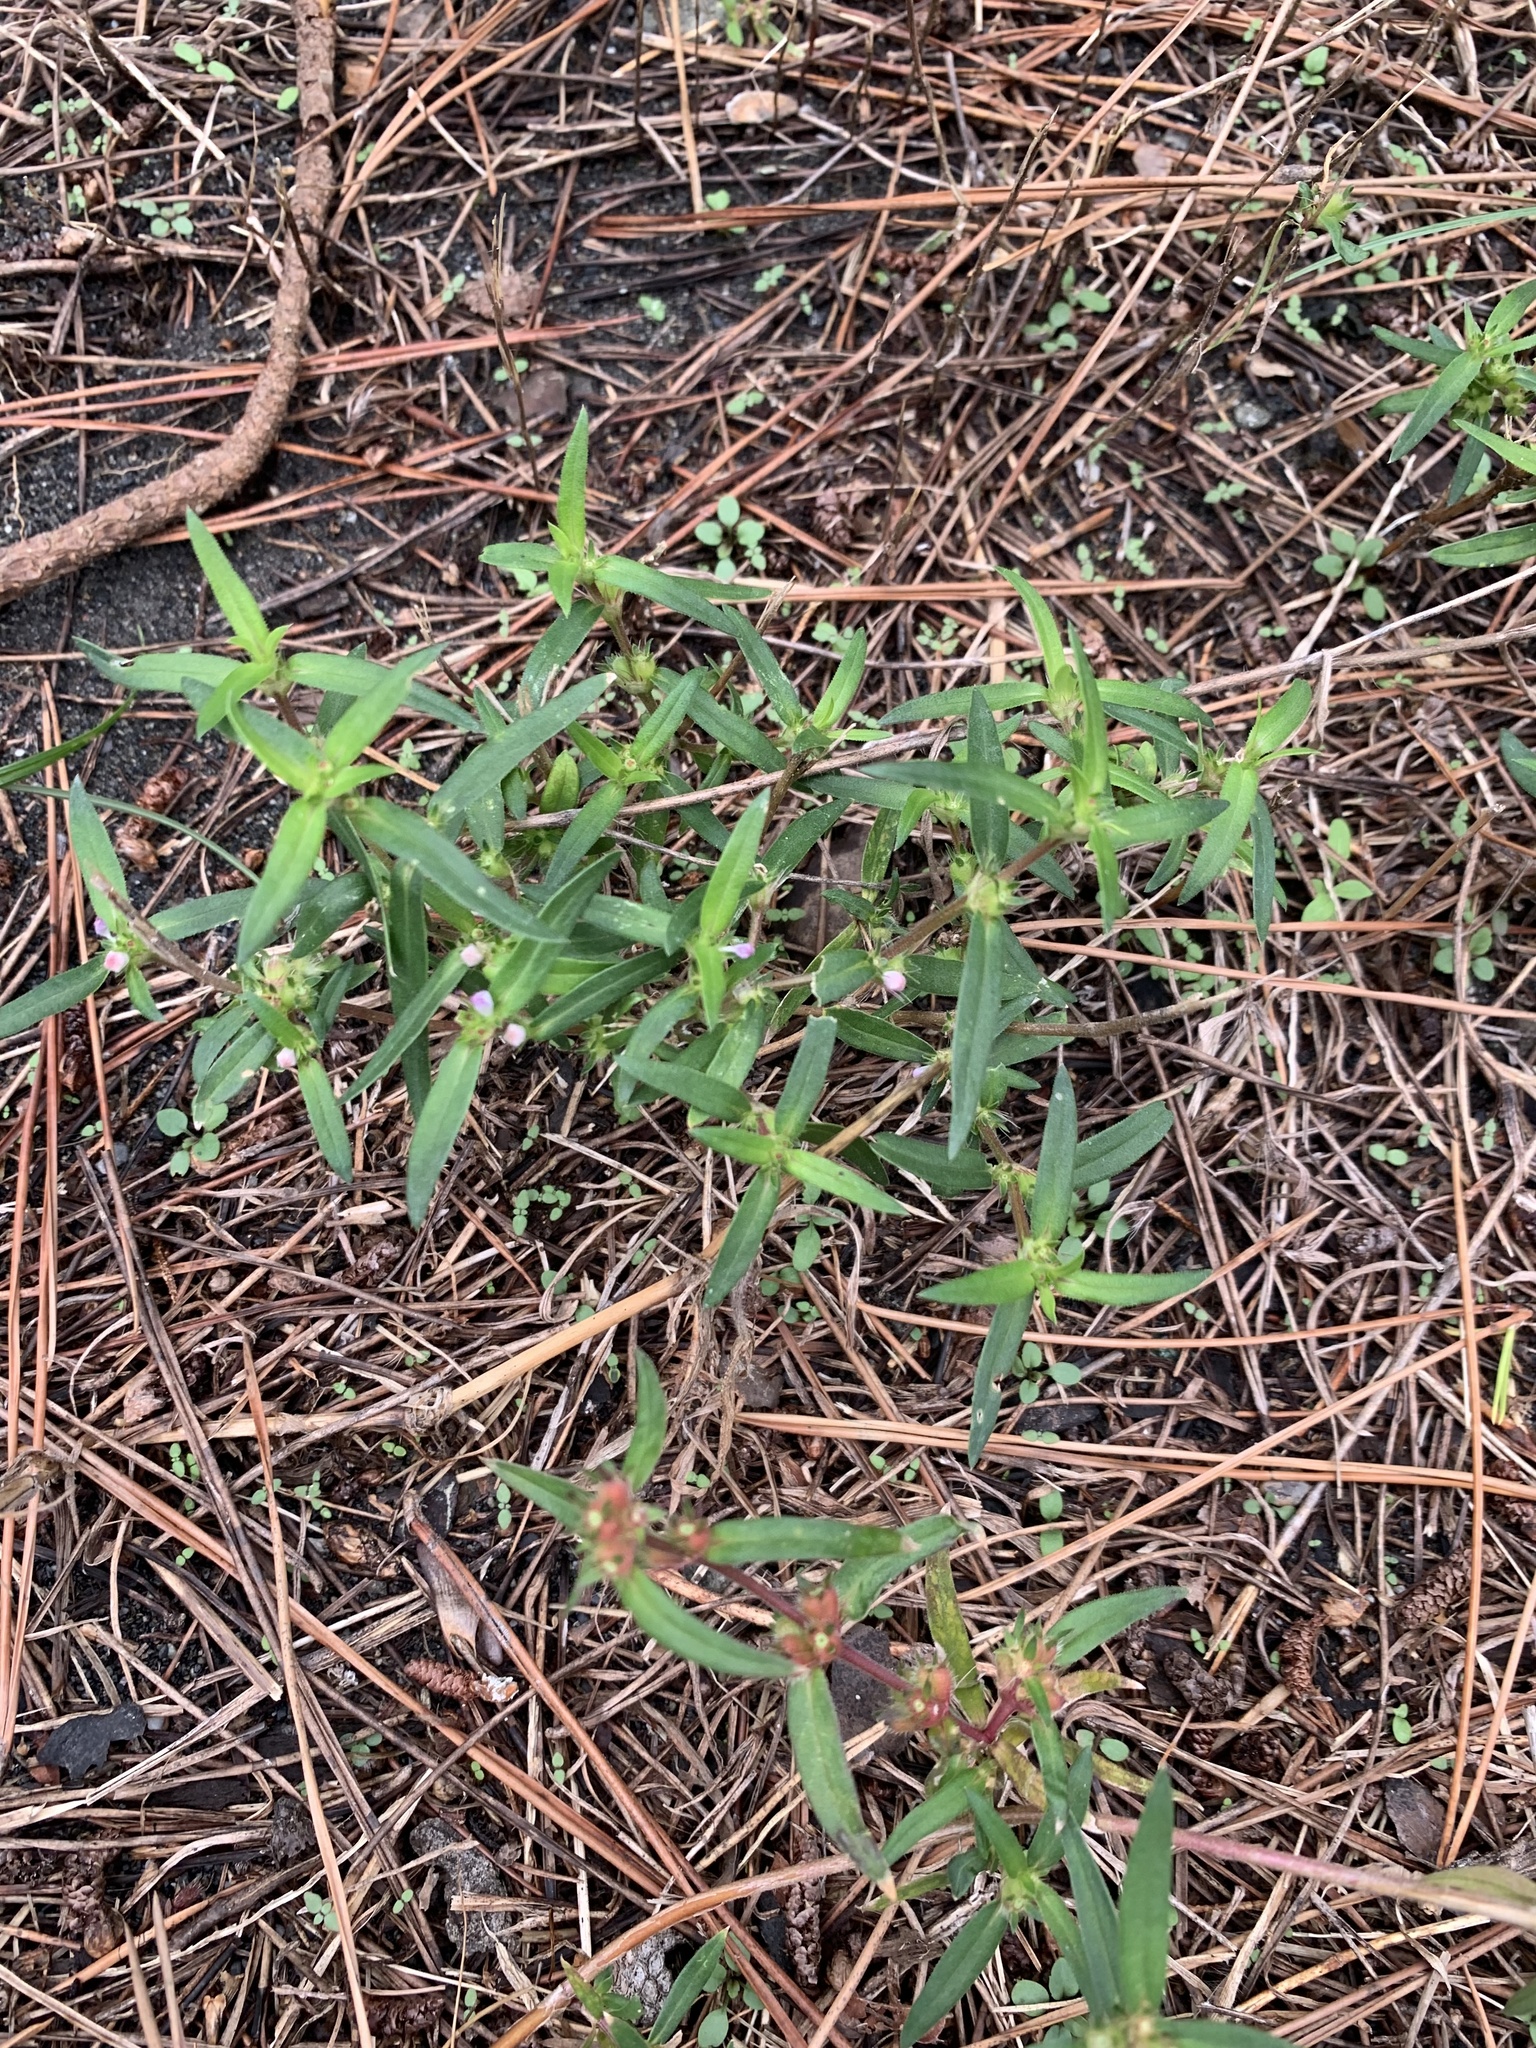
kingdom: Plantae
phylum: Tracheophyta
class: Magnoliopsida
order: Gentianales
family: Rubiaceae
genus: Hexasepalum
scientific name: Hexasepalum teres
